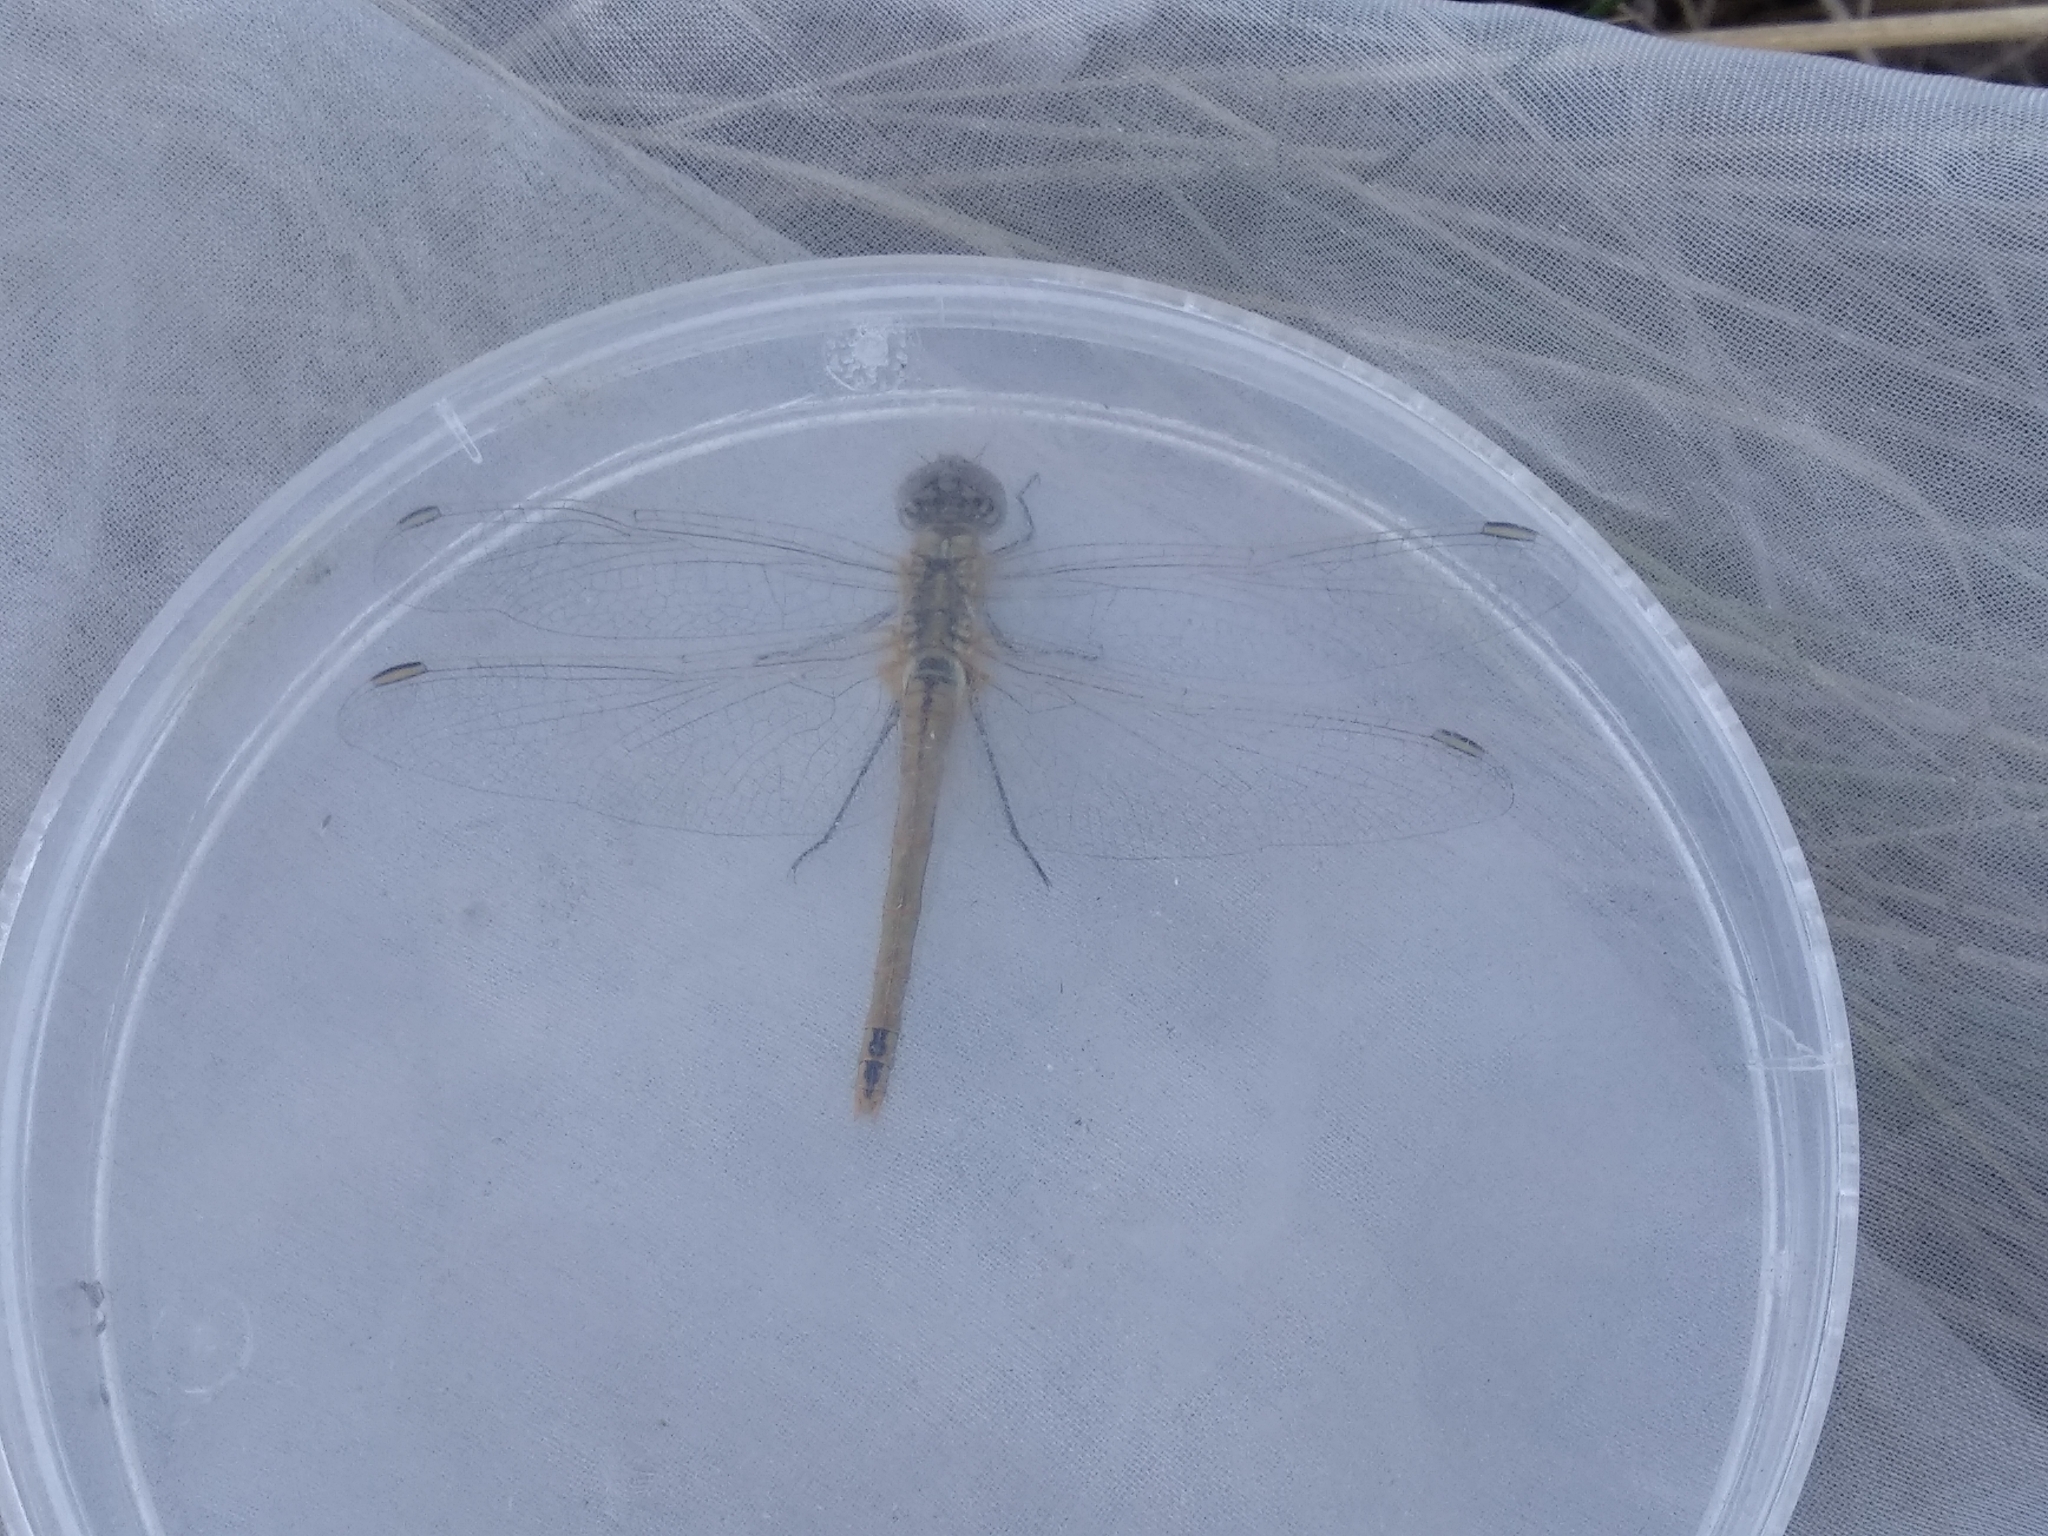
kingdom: Animalia
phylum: Arthropoda
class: Insecta
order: Odonata
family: Libellulidae
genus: Sympetrum
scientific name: Sympetrum fonscolombii
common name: Red-veined darter
